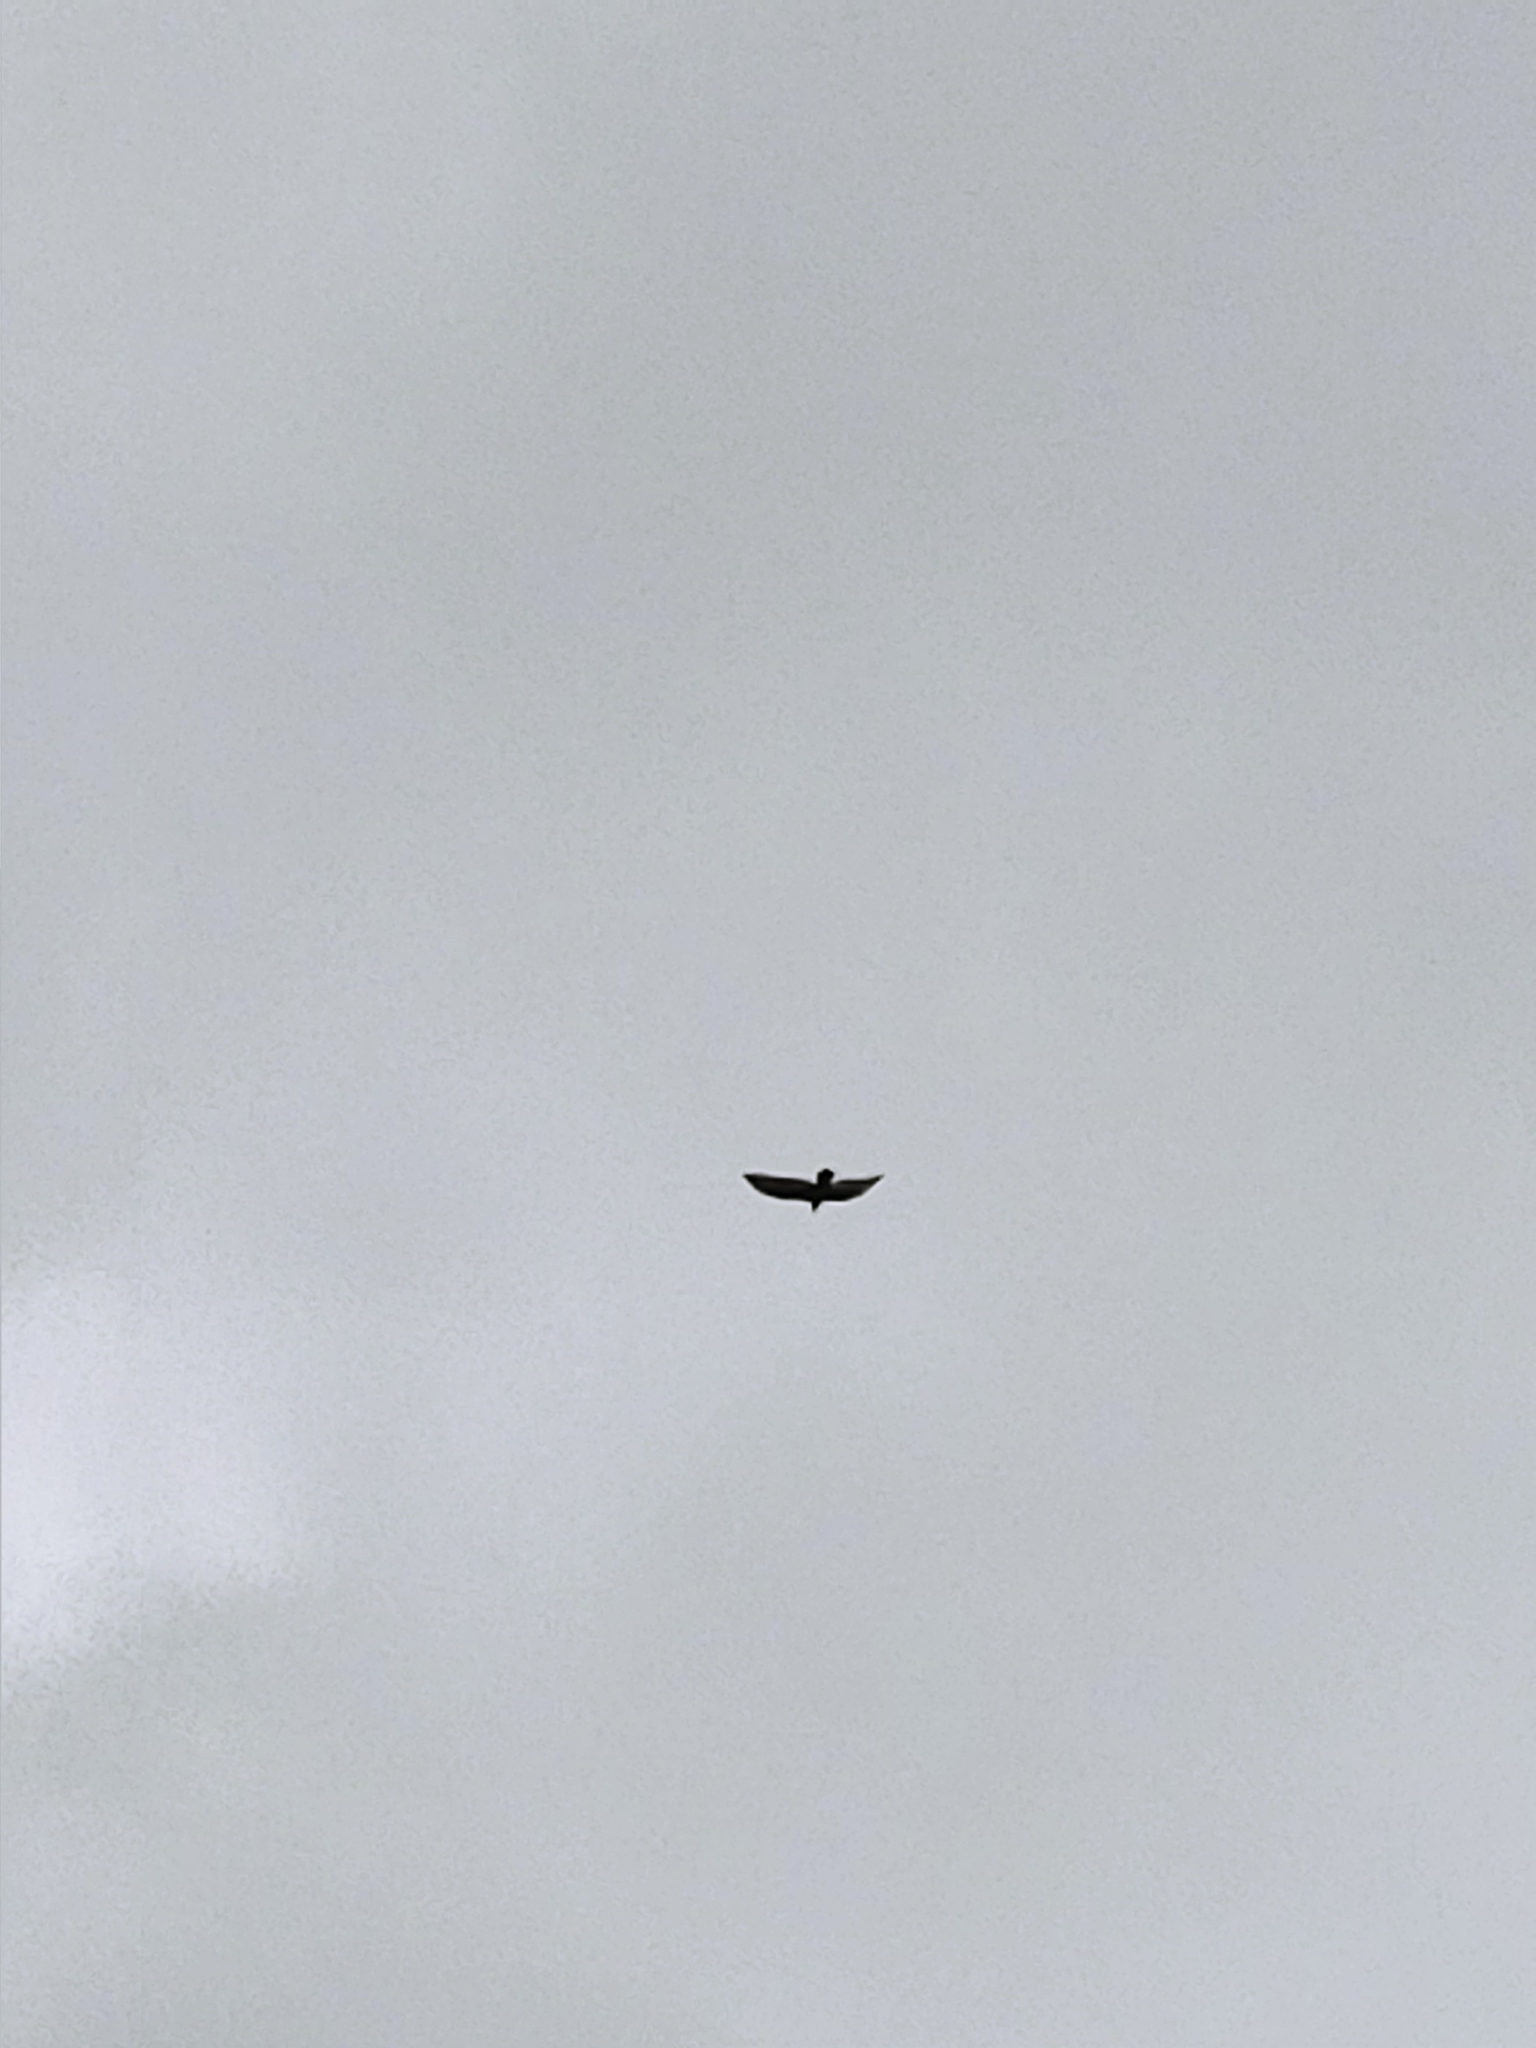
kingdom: Animalia
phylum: Chordata
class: Aves
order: Accipitriformes
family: Cathartidae
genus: Cathartes
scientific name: Cathartes aura
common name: Turkey vulture
